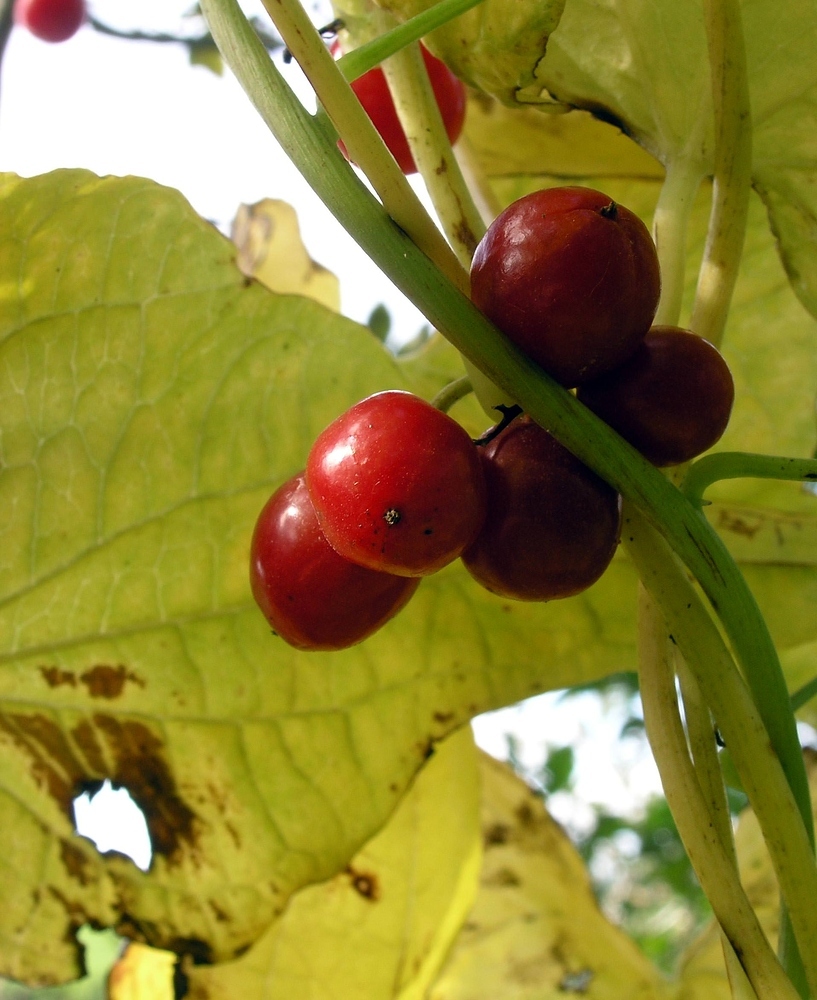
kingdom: Plantae
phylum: Tracheophyta
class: Liliopsida
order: Dioscoreales
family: Dioscoreaceae
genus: Dioscorea
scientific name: Dioscorea communis
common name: Black-bindweed
